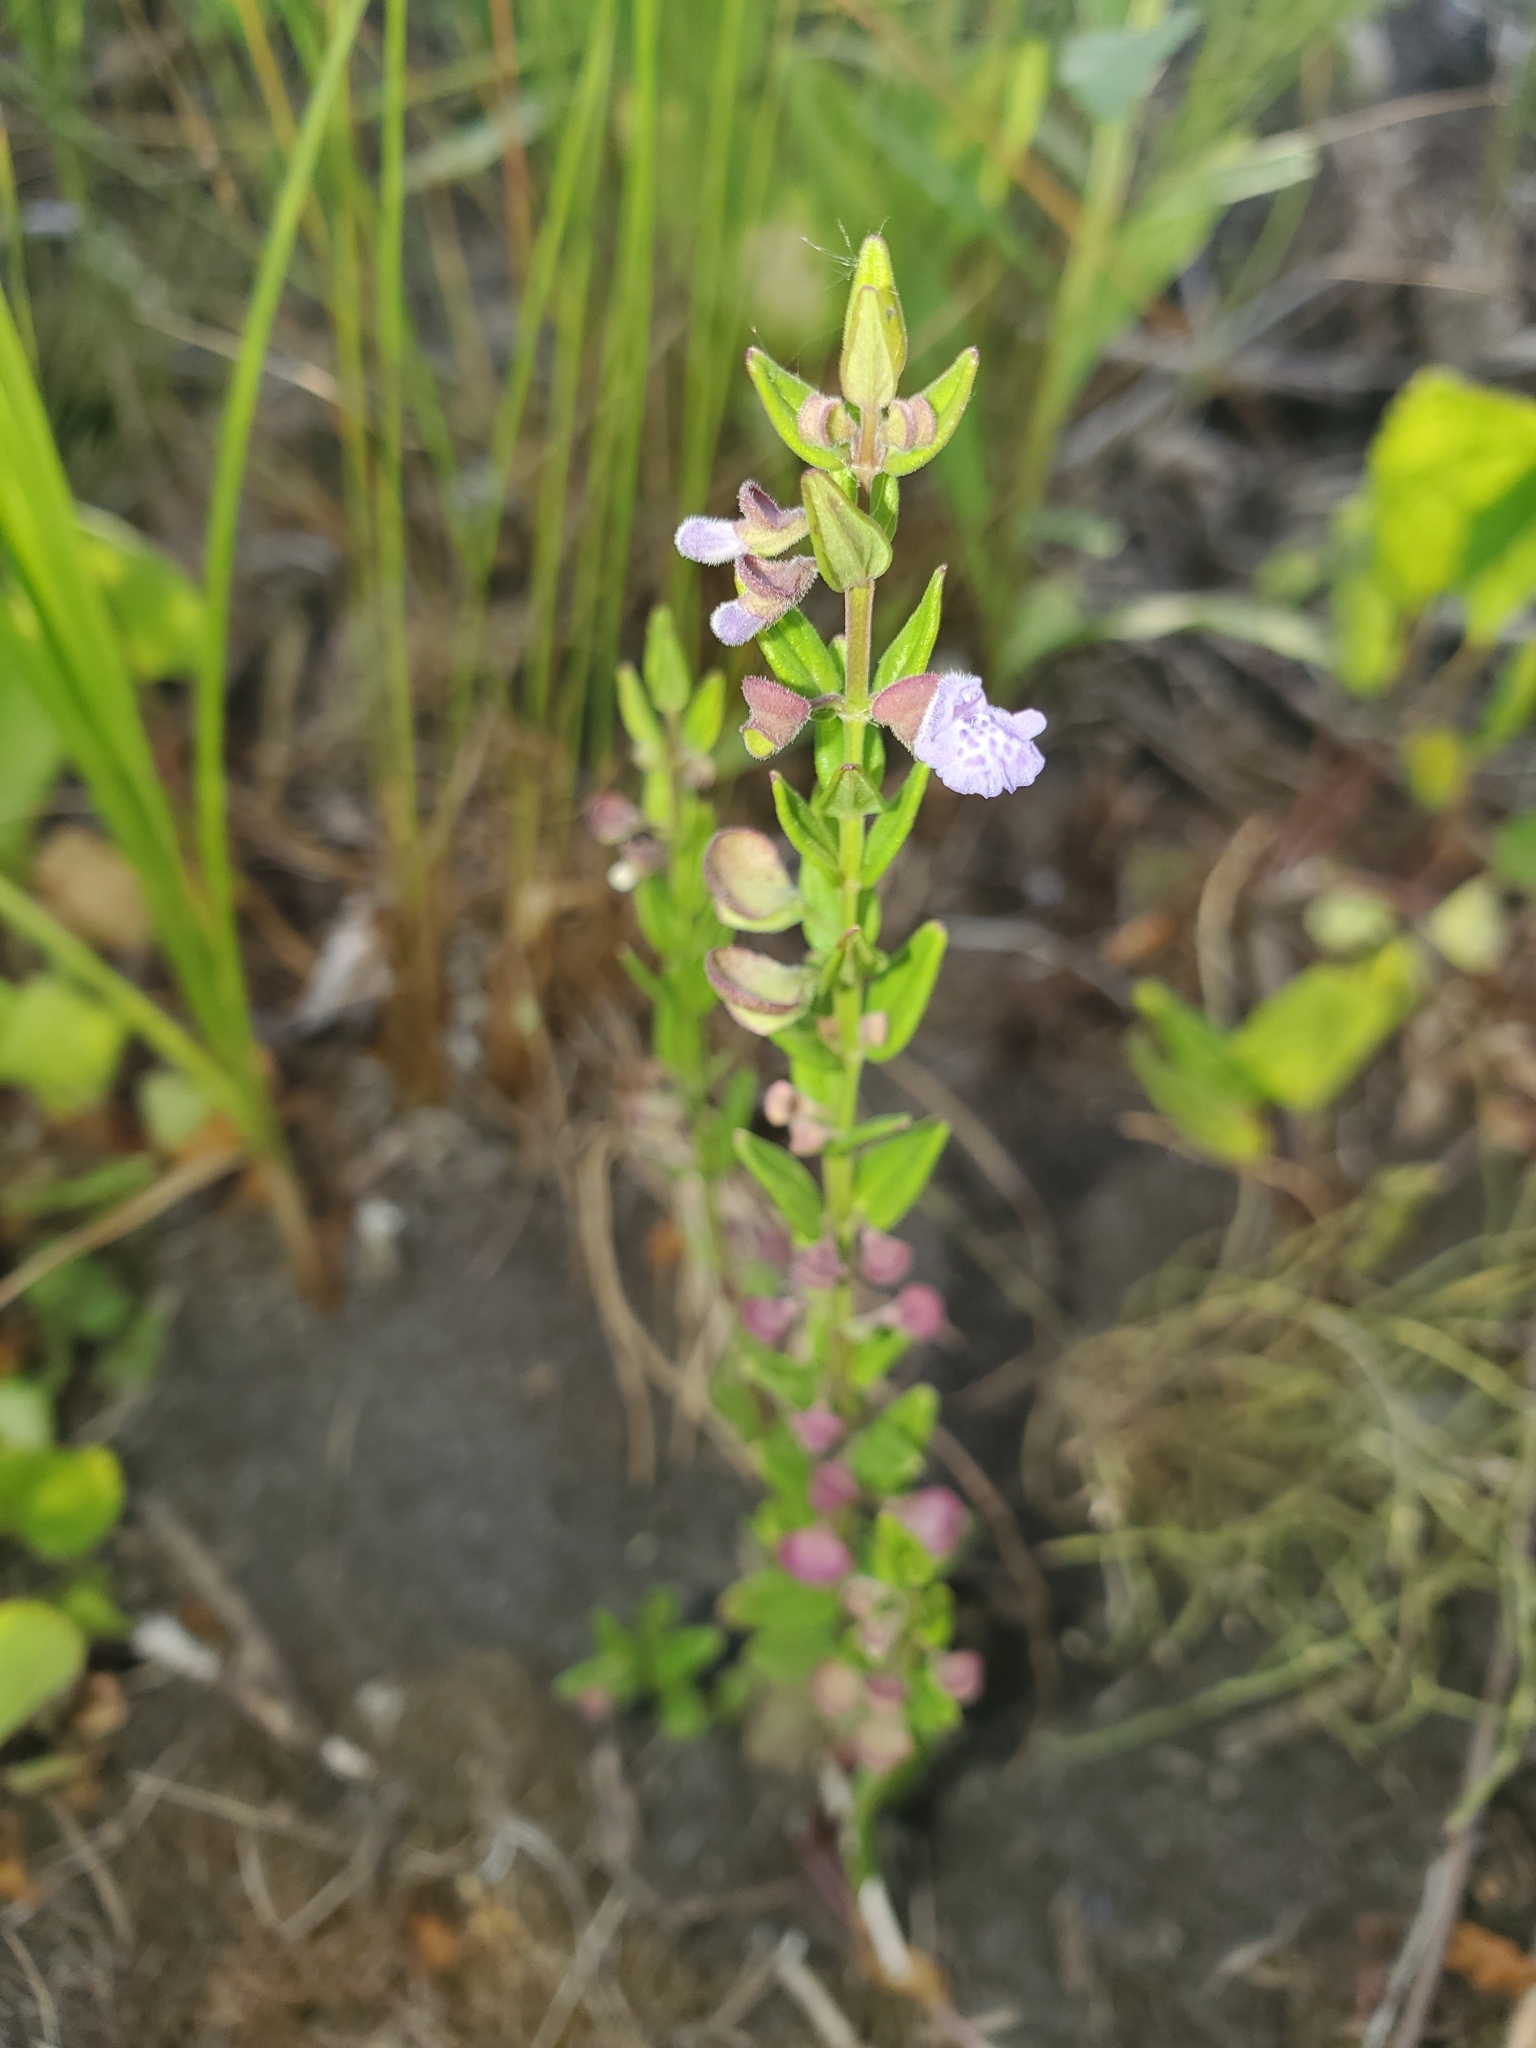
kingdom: Plantae
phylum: Tracheophyta
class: Magnoliopsida
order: Lamiales
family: Lamiaceae
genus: Scutellaria
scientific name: Scutellaria parvula
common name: Little scullcap
